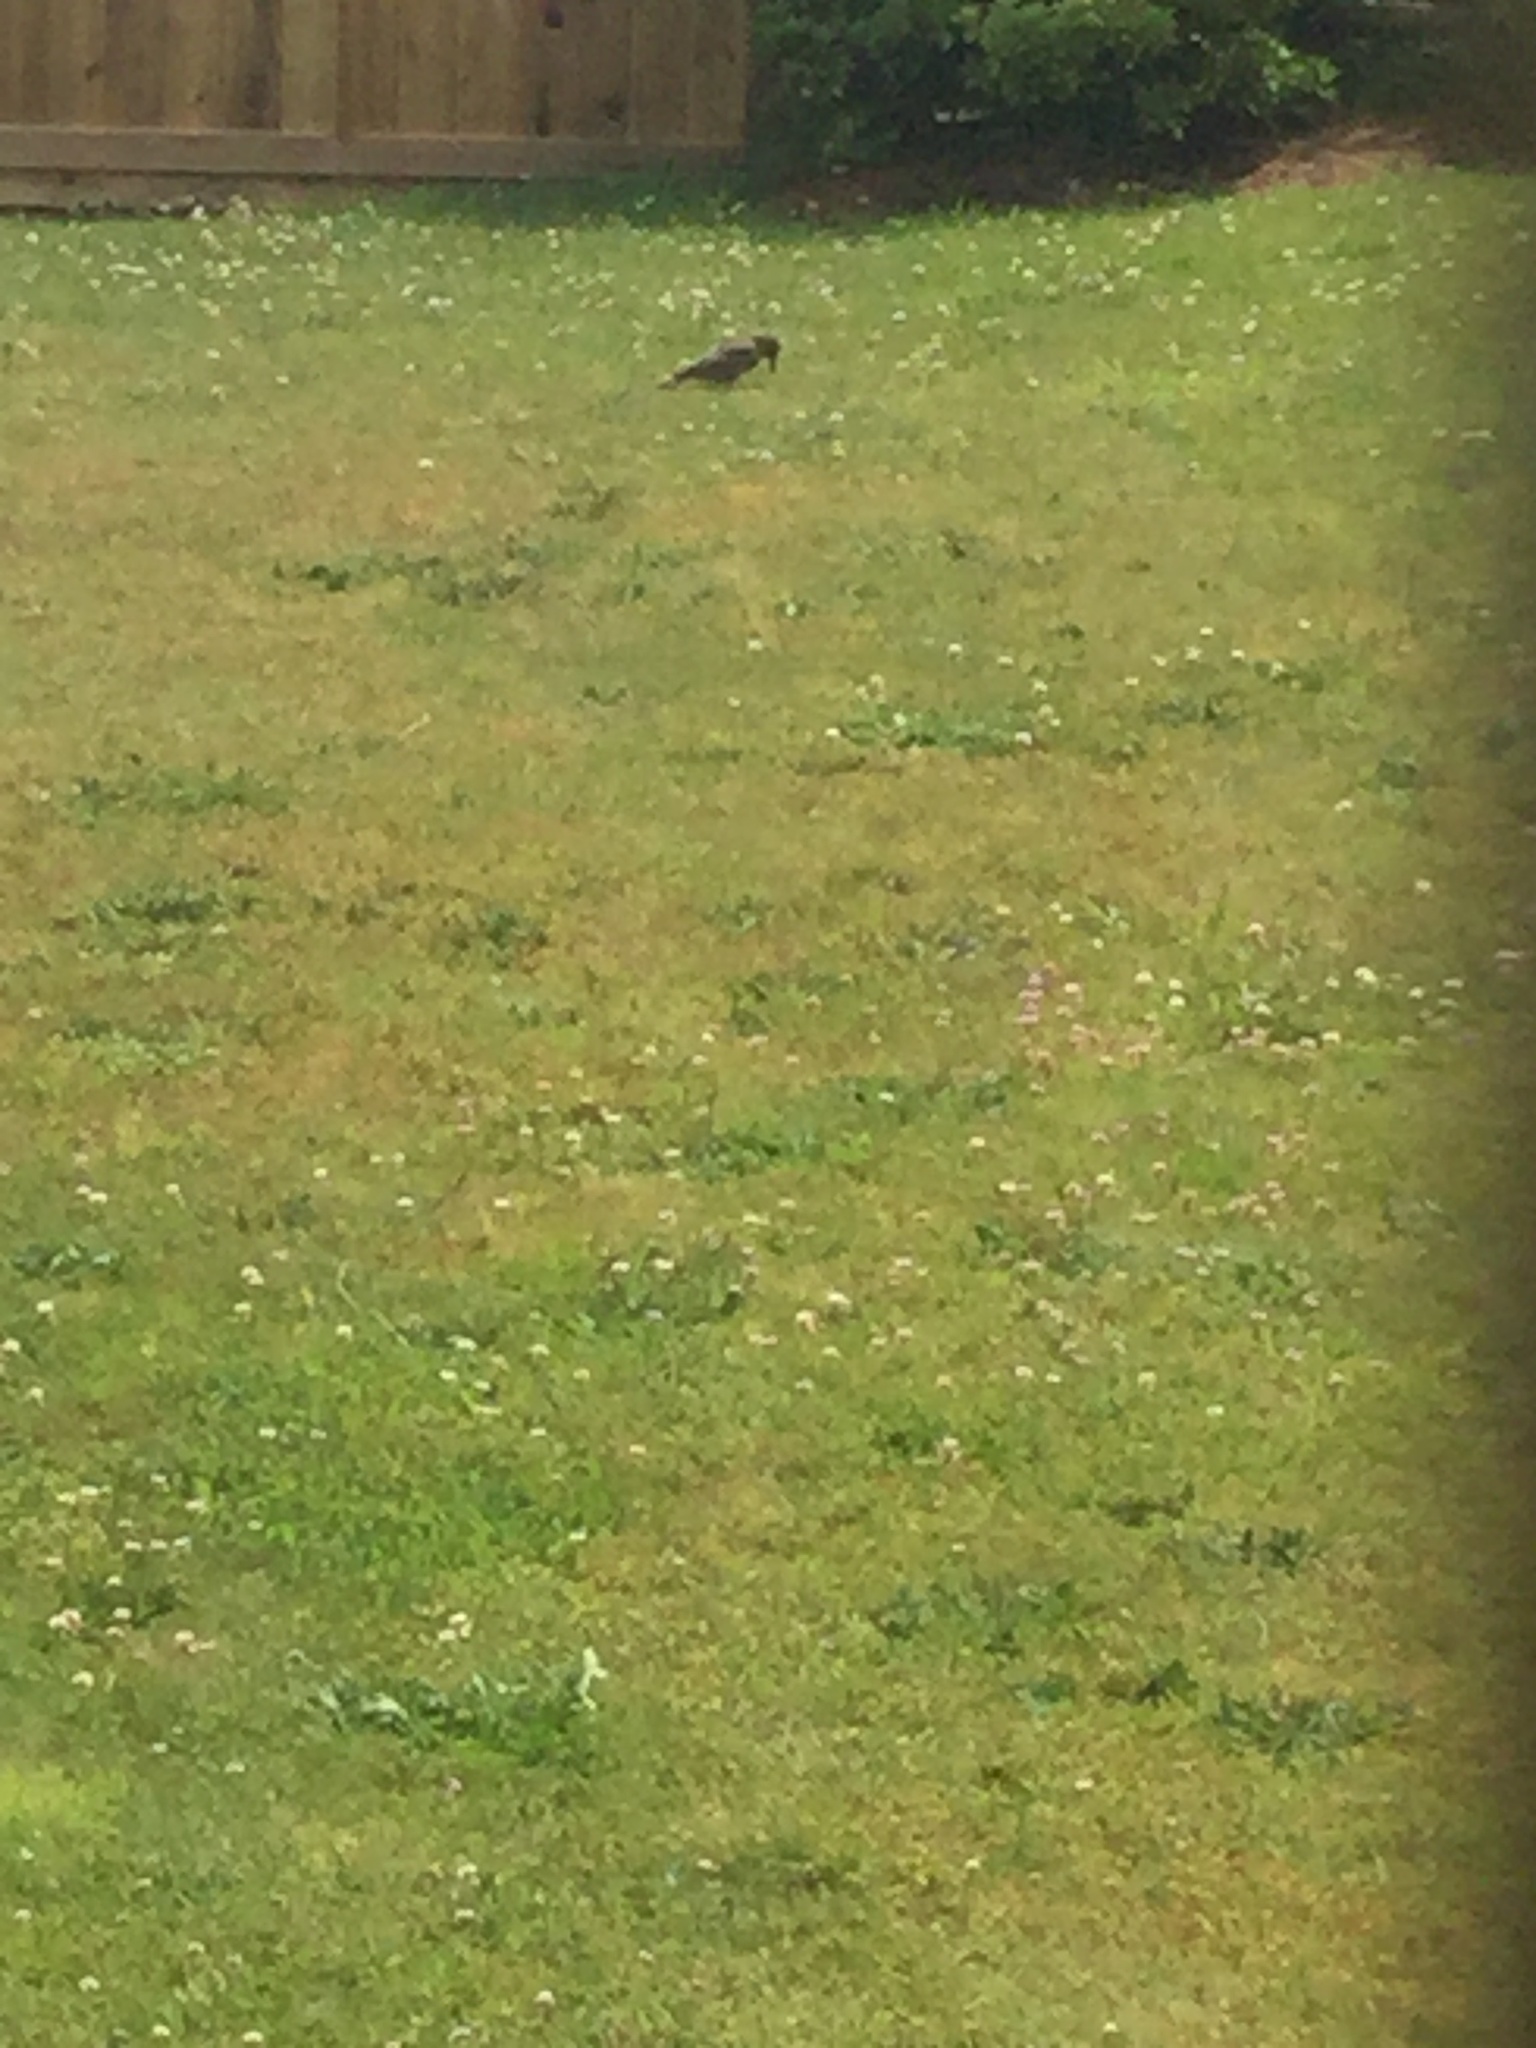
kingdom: Animalia
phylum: Chordata
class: Aves
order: Piciformes
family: Picidae
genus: Colaptes
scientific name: Colaptes auratus
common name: Northern flicker
